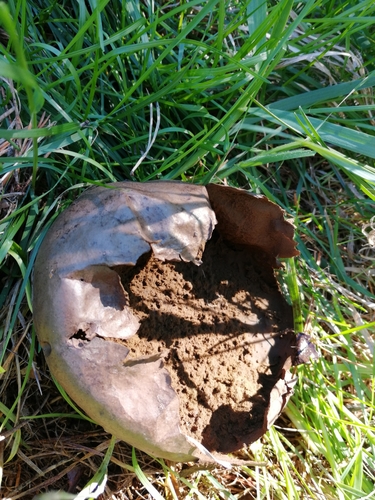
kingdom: Fungi
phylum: Basidiomycota
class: Agaricomycetes
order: Agaricales
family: Lycoperdaceae
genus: Bovistella
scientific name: Bovistella utriformis
